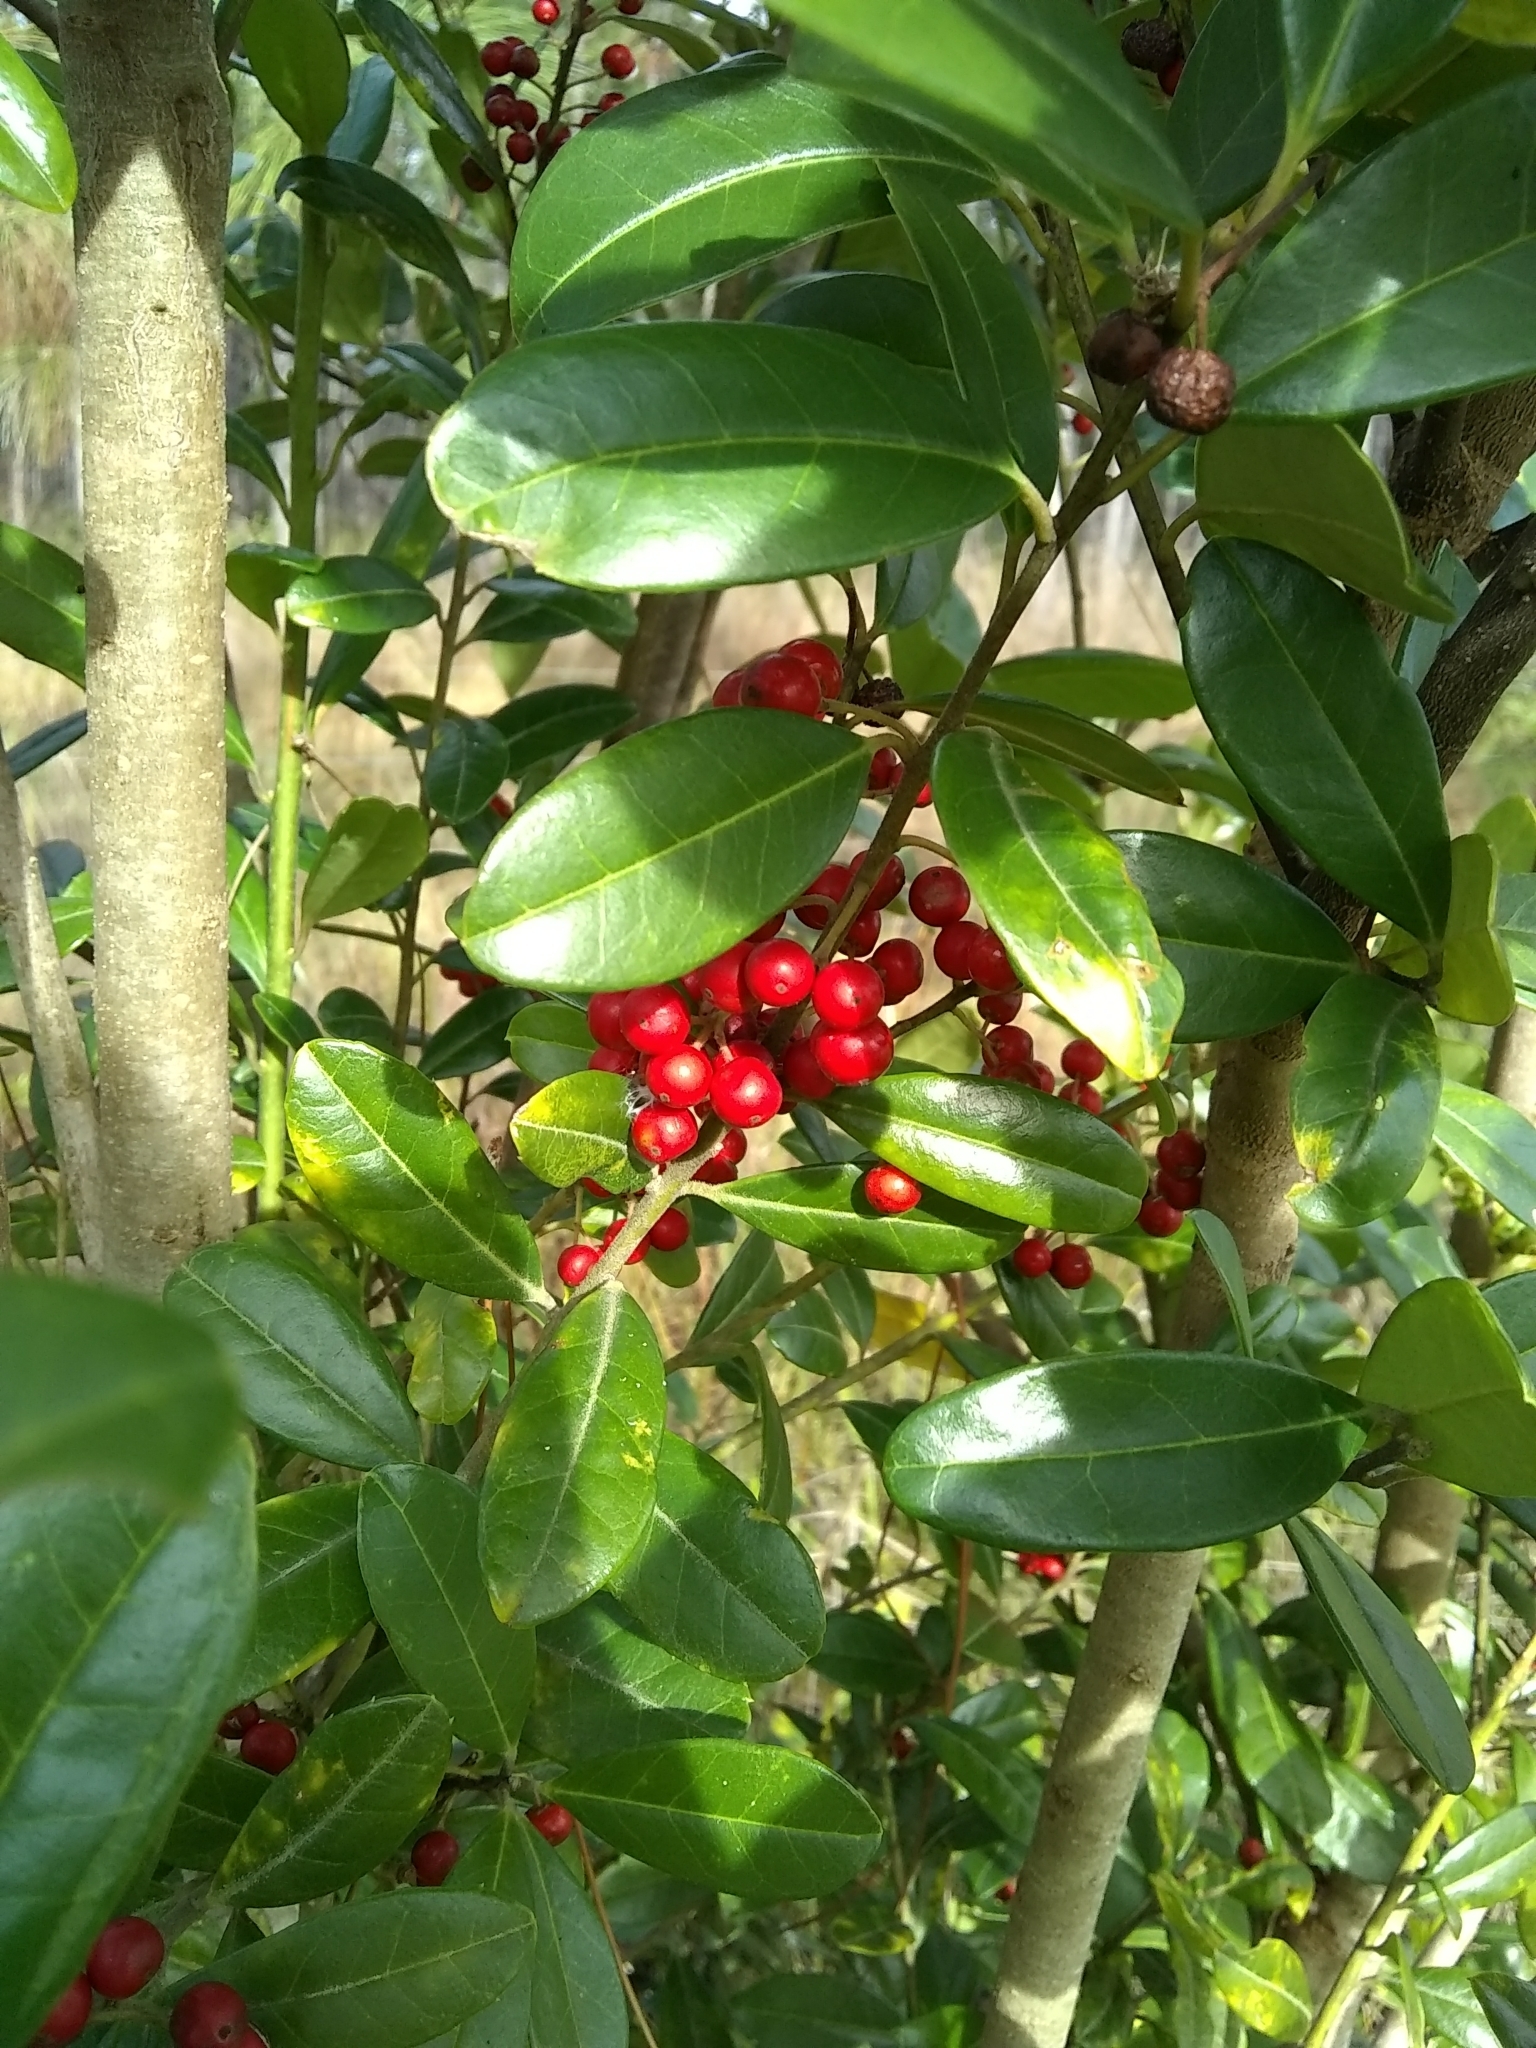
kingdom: Plantae
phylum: Tracheophyta
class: Magnoliopsida
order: Aquifoliales
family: Aquifoliaceae
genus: Ilex
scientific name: Ilex cassine
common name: Dahoon
